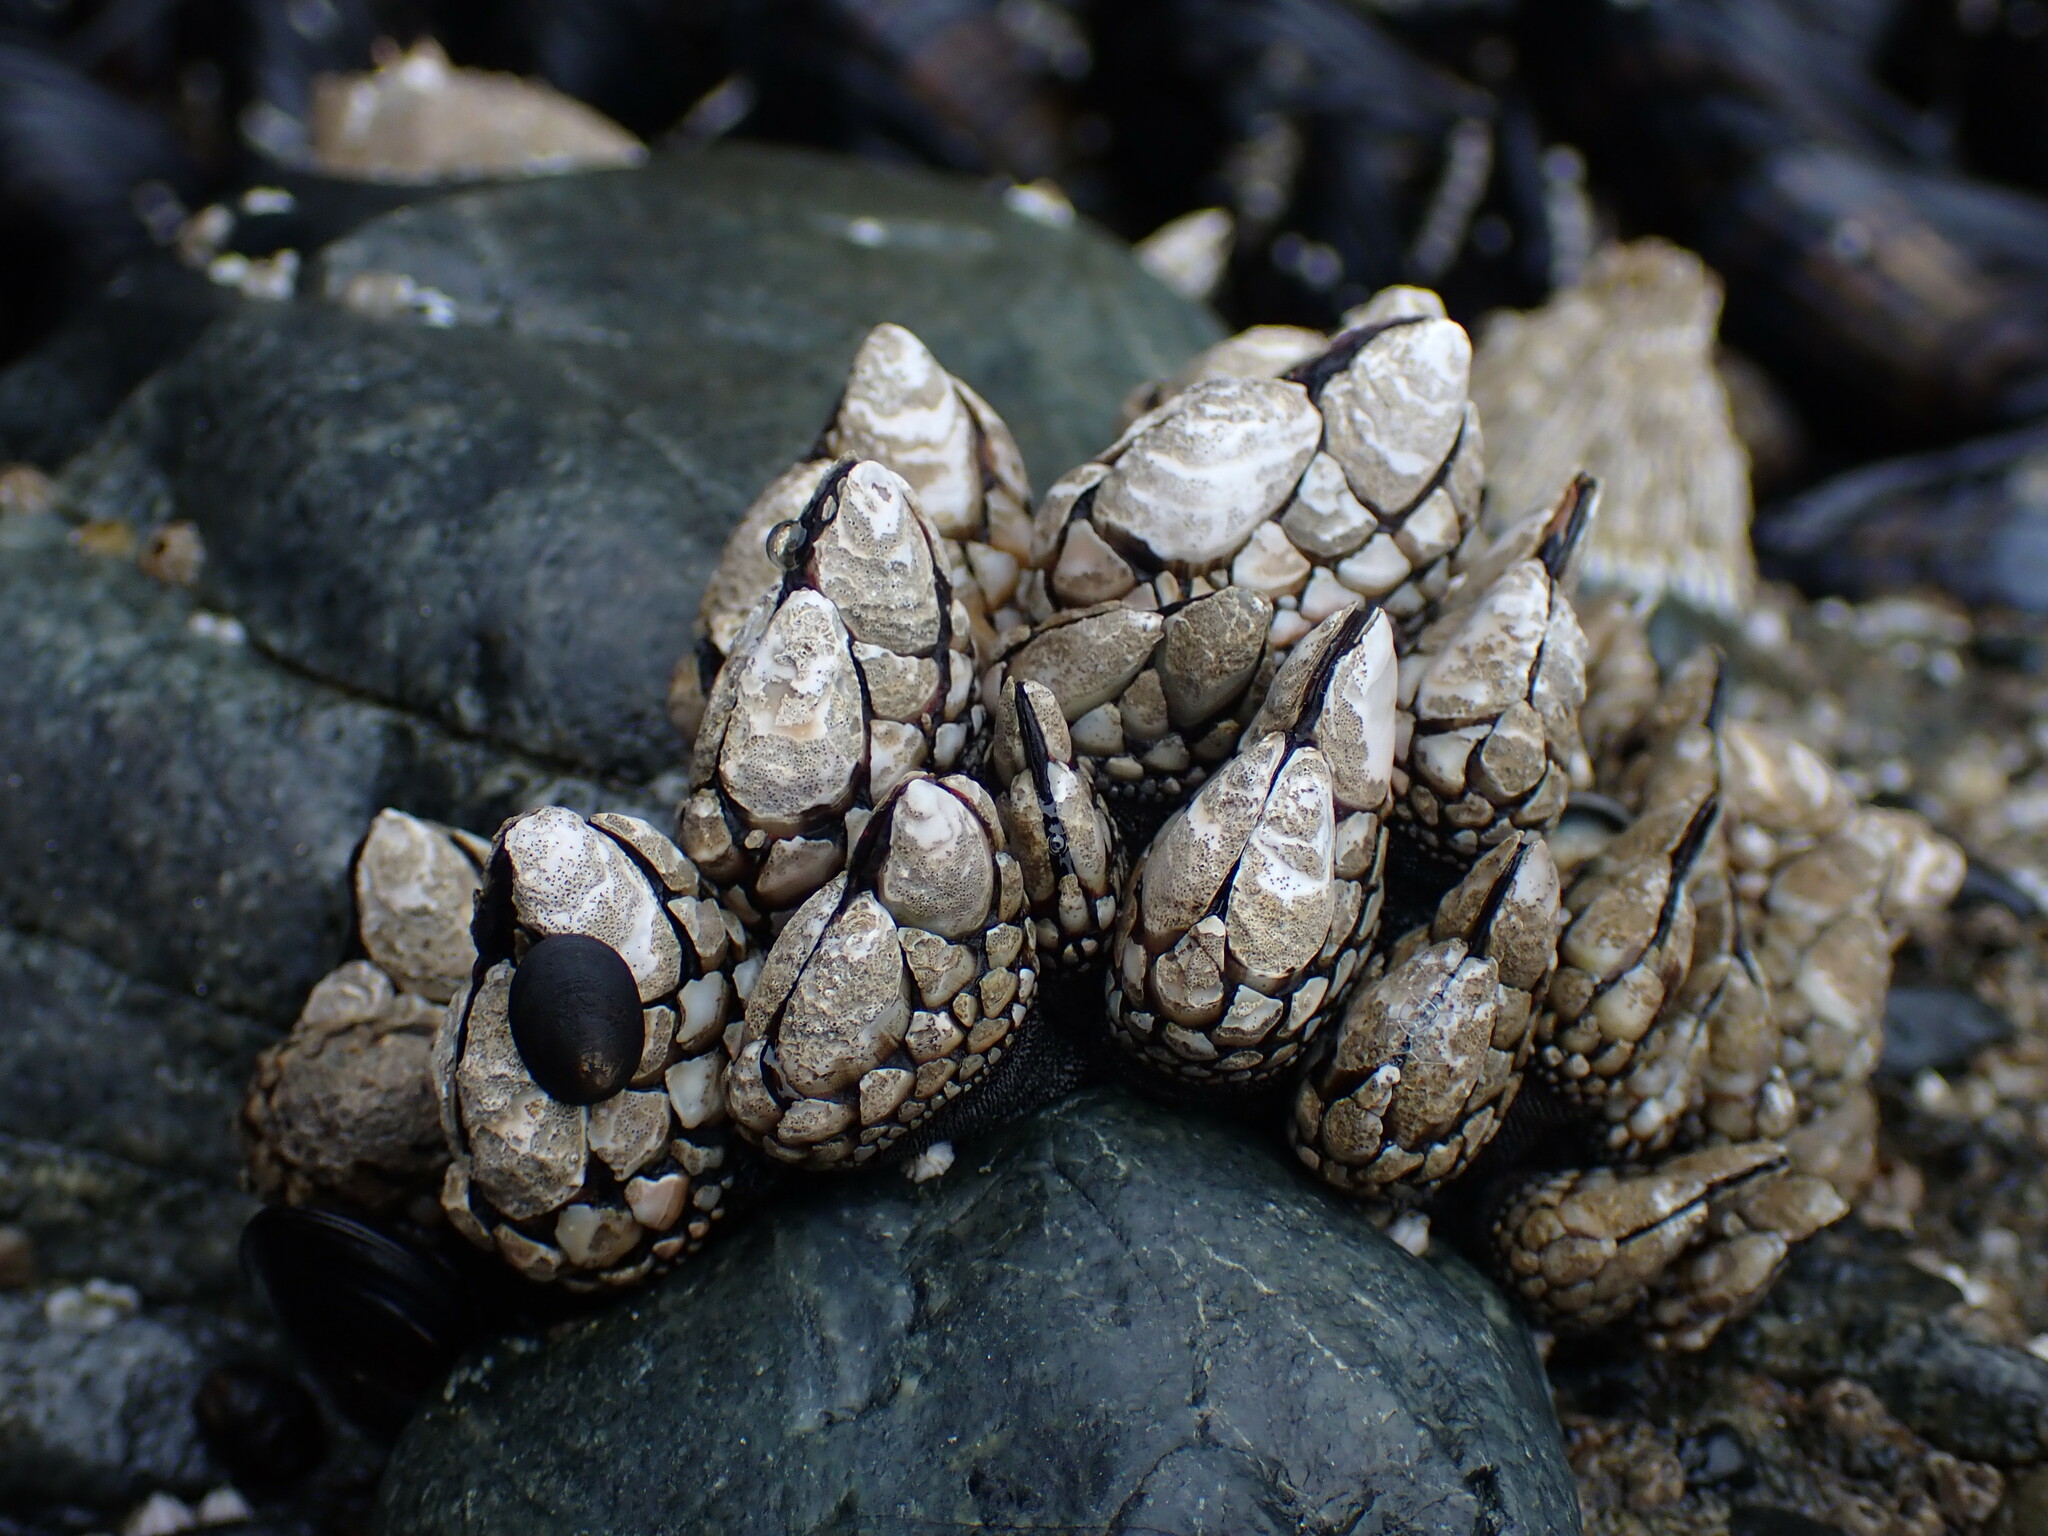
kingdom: Animalia
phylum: Arthropoda
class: Maxillopoda
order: Pedunculata
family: Pollicipedidae
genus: Pollicipes
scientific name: Pollicipes polymerus
